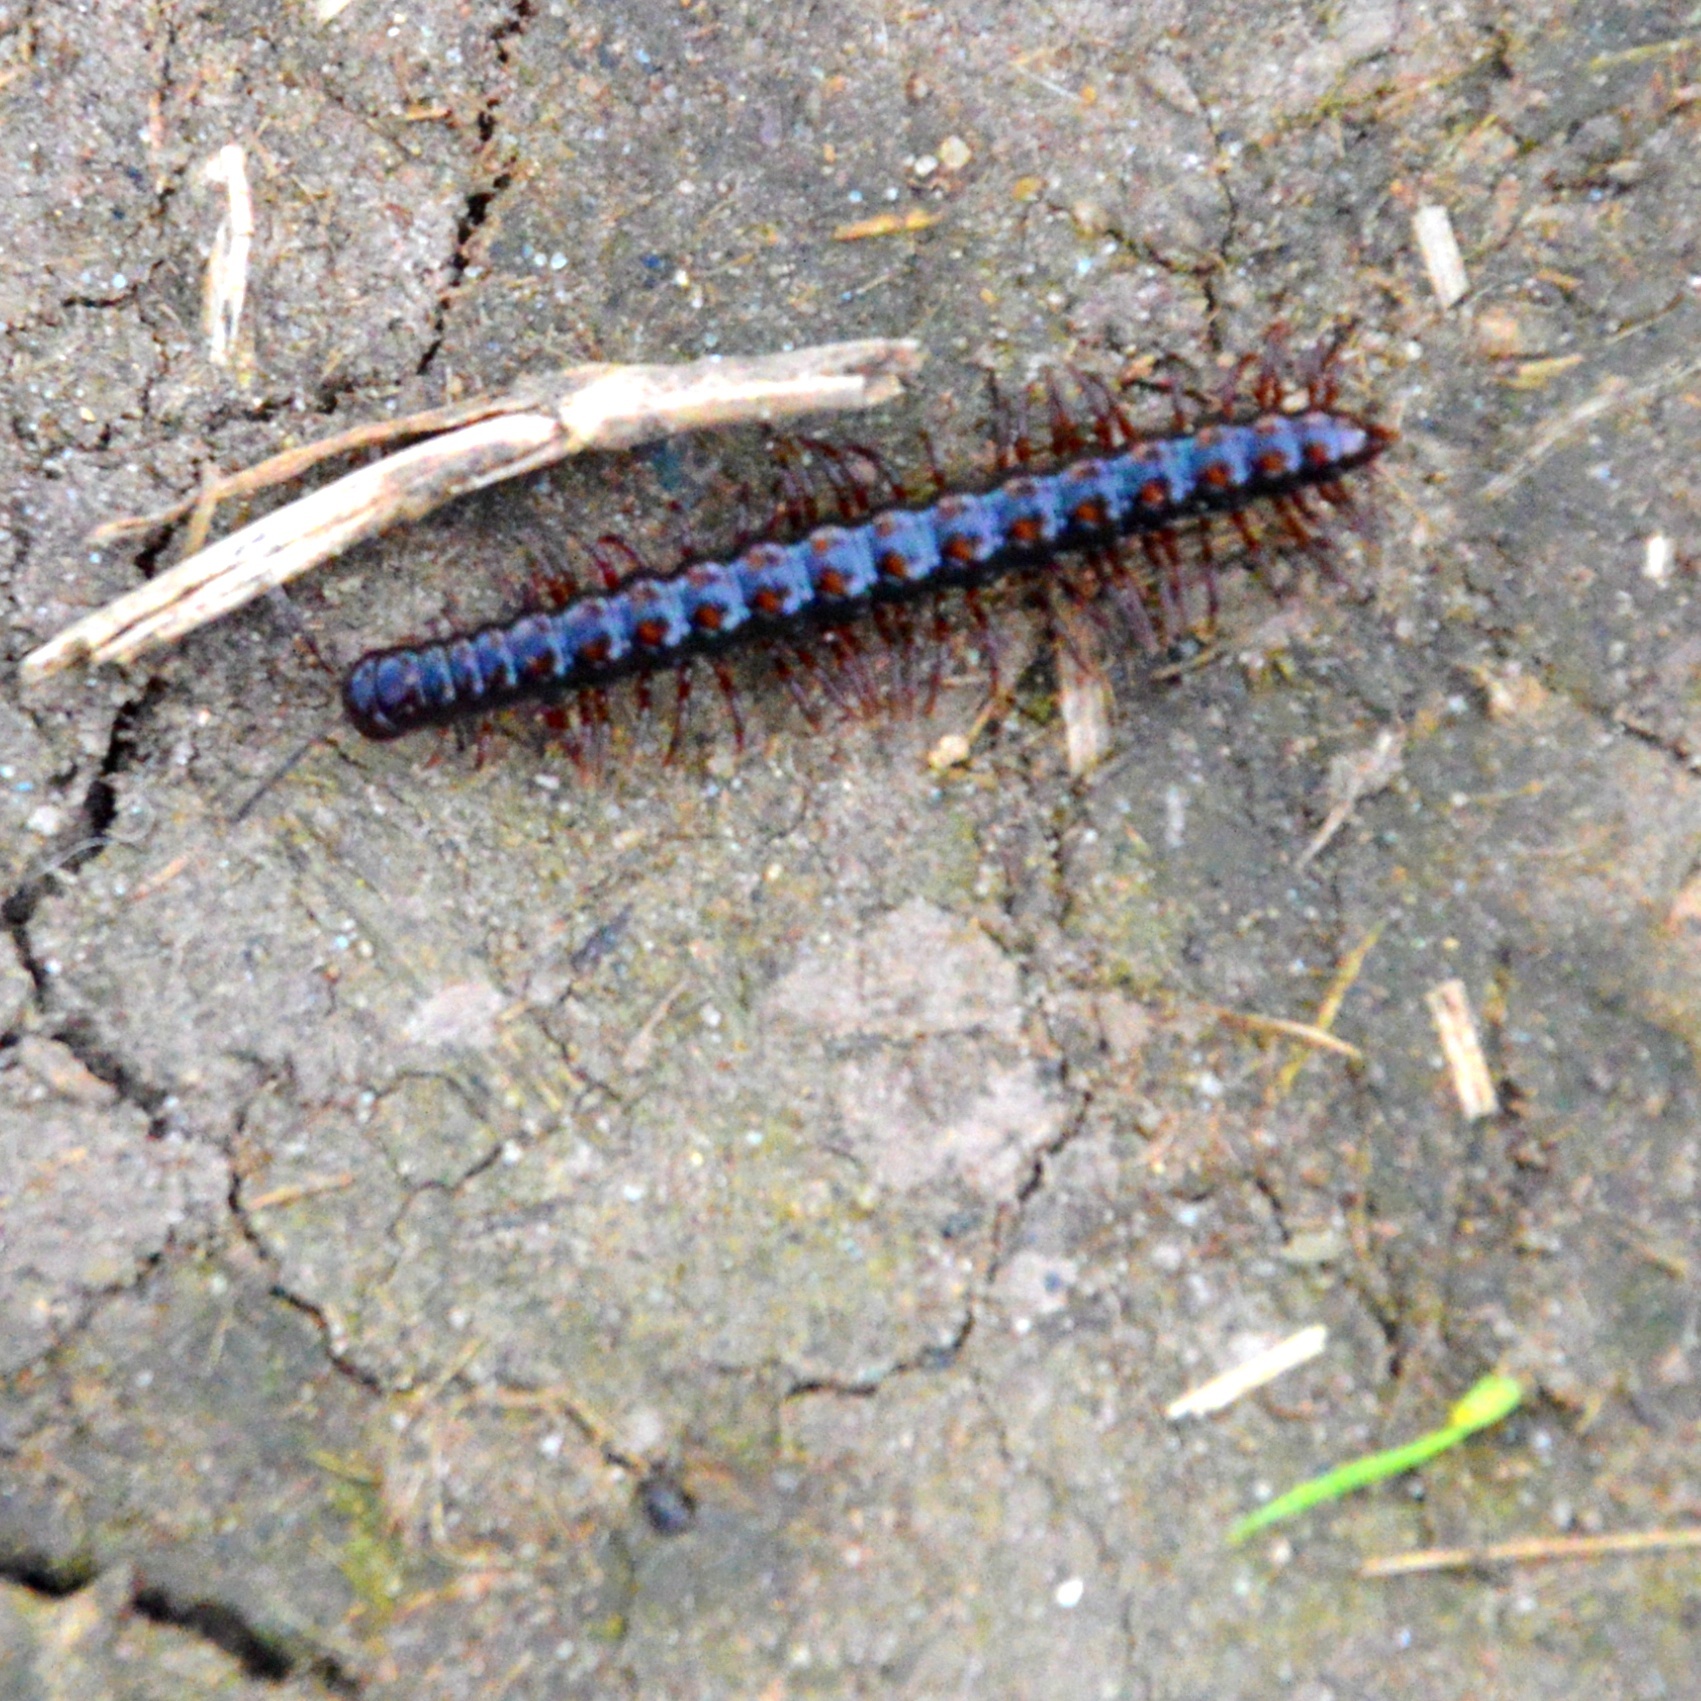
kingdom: Animalia
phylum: Arthropoda
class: Diplopoda
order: Polydesmida
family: Paradoxosomatidae
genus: Strongylosoma
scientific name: Strongylosoma stigmatosus
